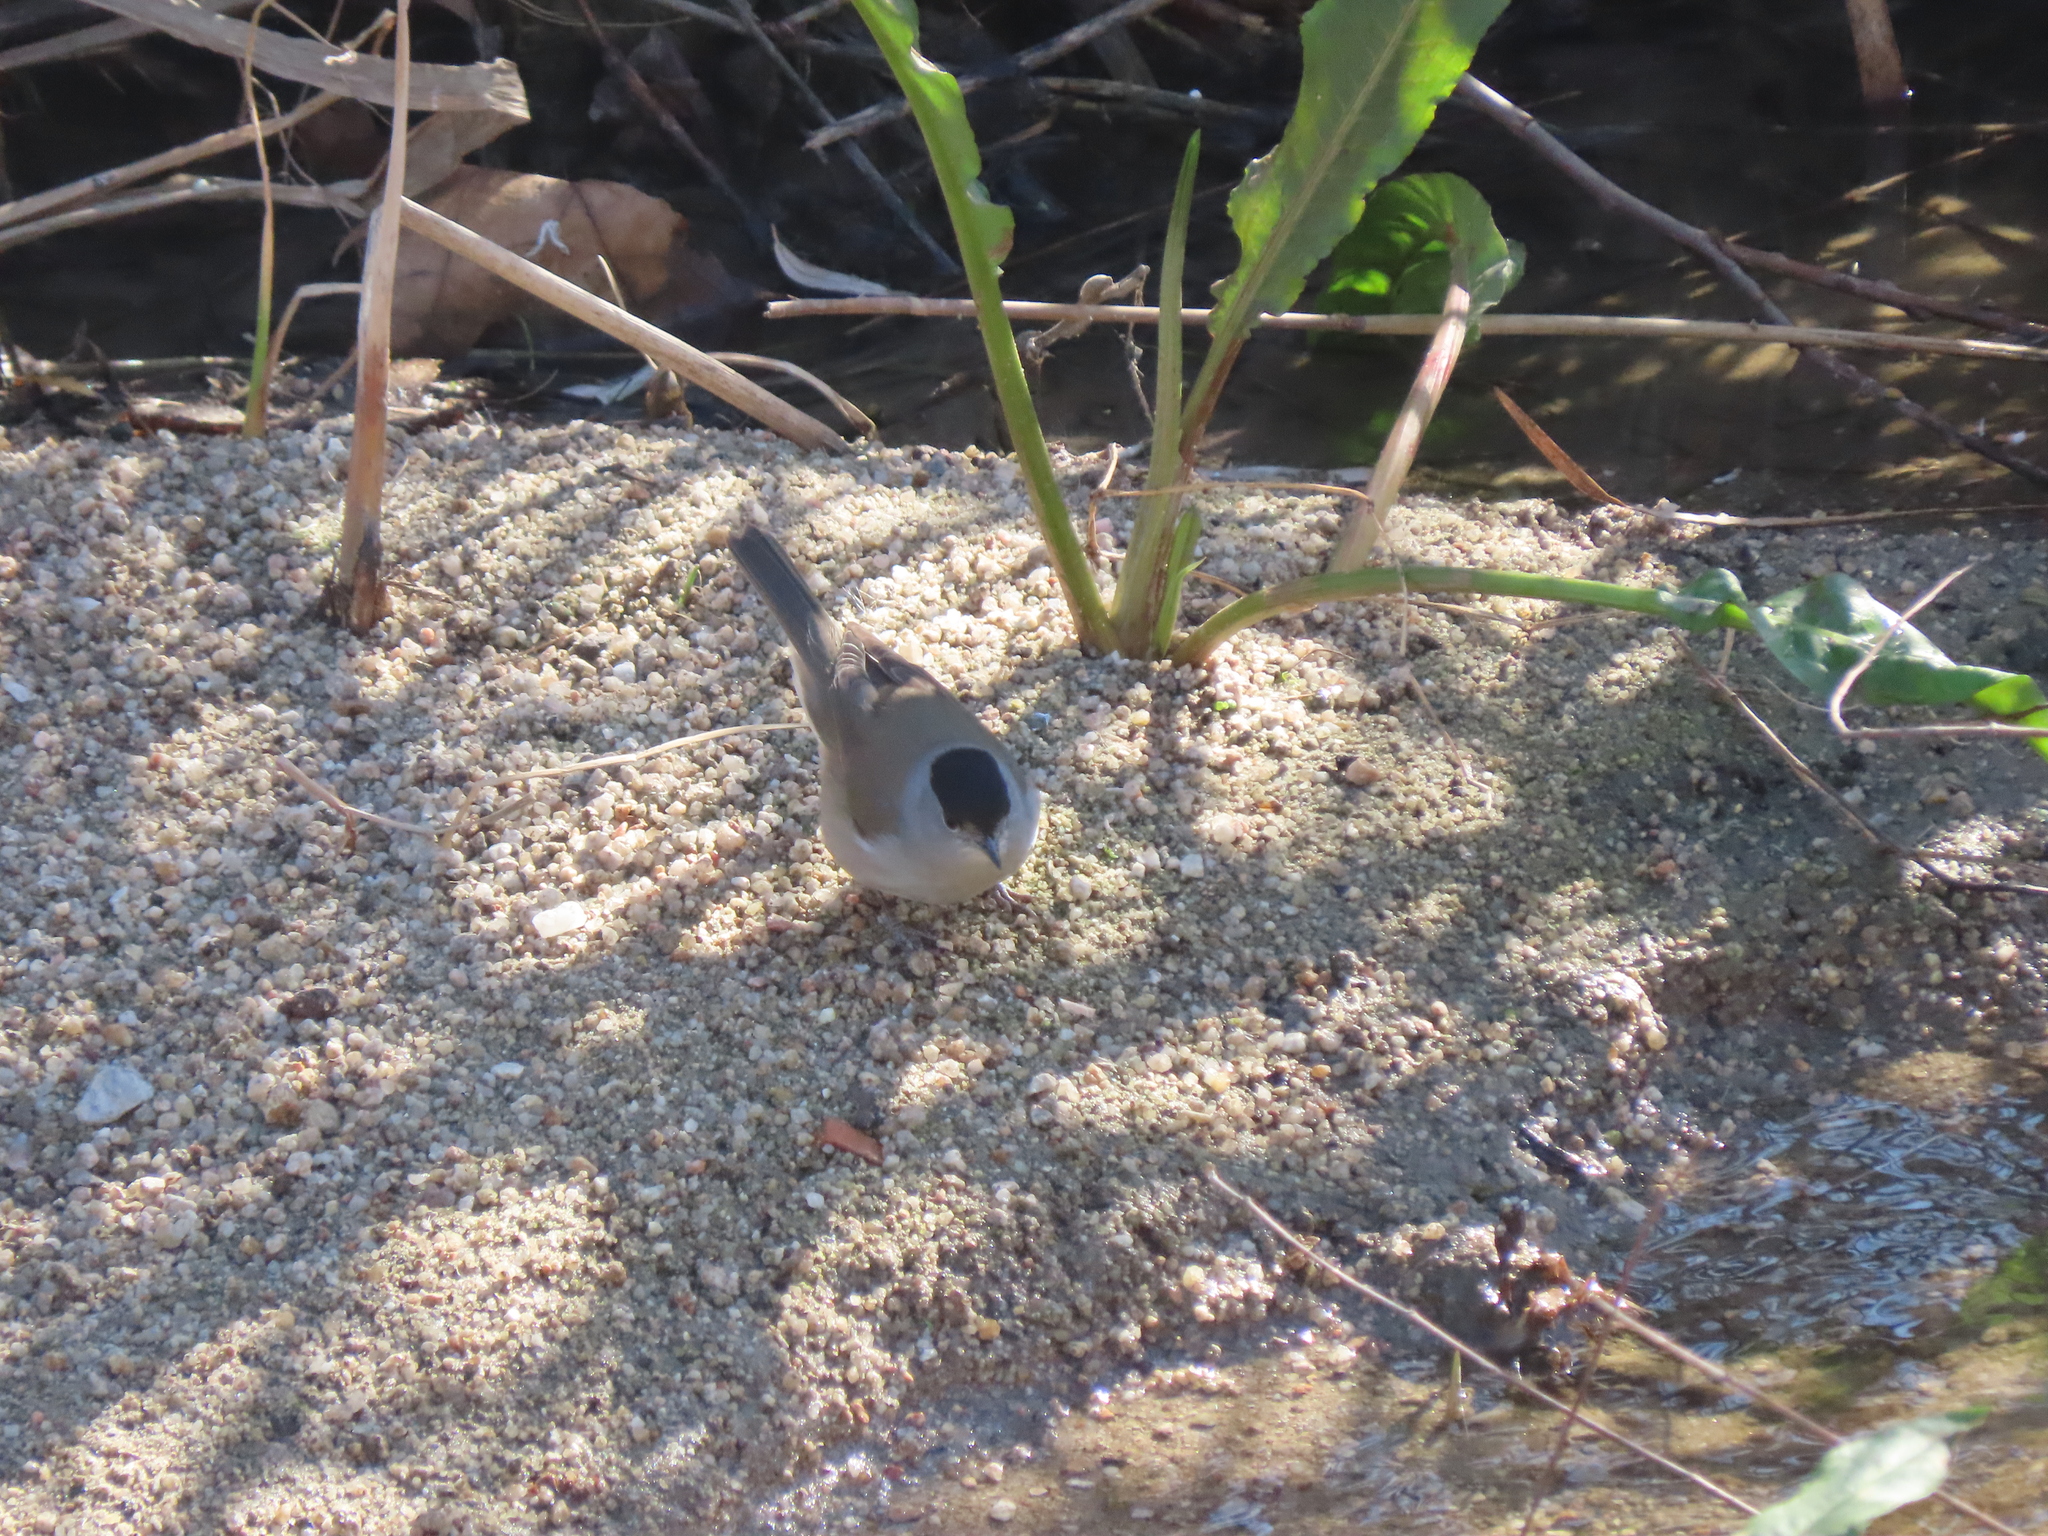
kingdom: Animalia
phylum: Chordata
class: Aves
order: Passeriformes
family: Sylviidae
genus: Sylvia
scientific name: Sylvia atricapilla
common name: Eurasian blackcap
